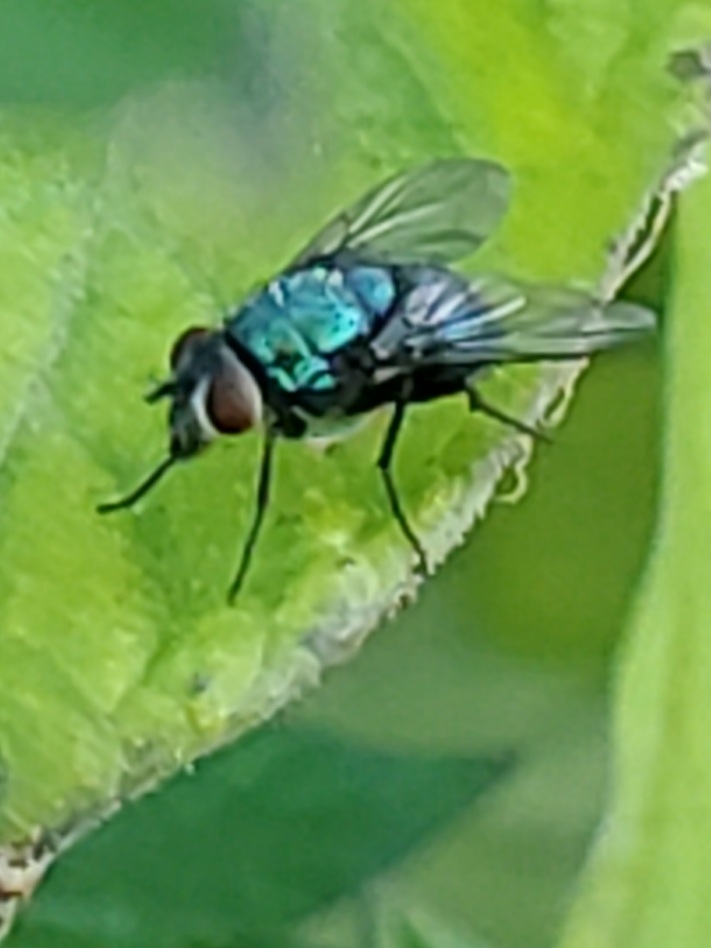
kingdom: Animalia
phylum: Arthropoda
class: Insecta
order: Diptera
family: Calliphoridae
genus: Lucilia
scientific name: Lucilia sericata
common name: Blow fly
